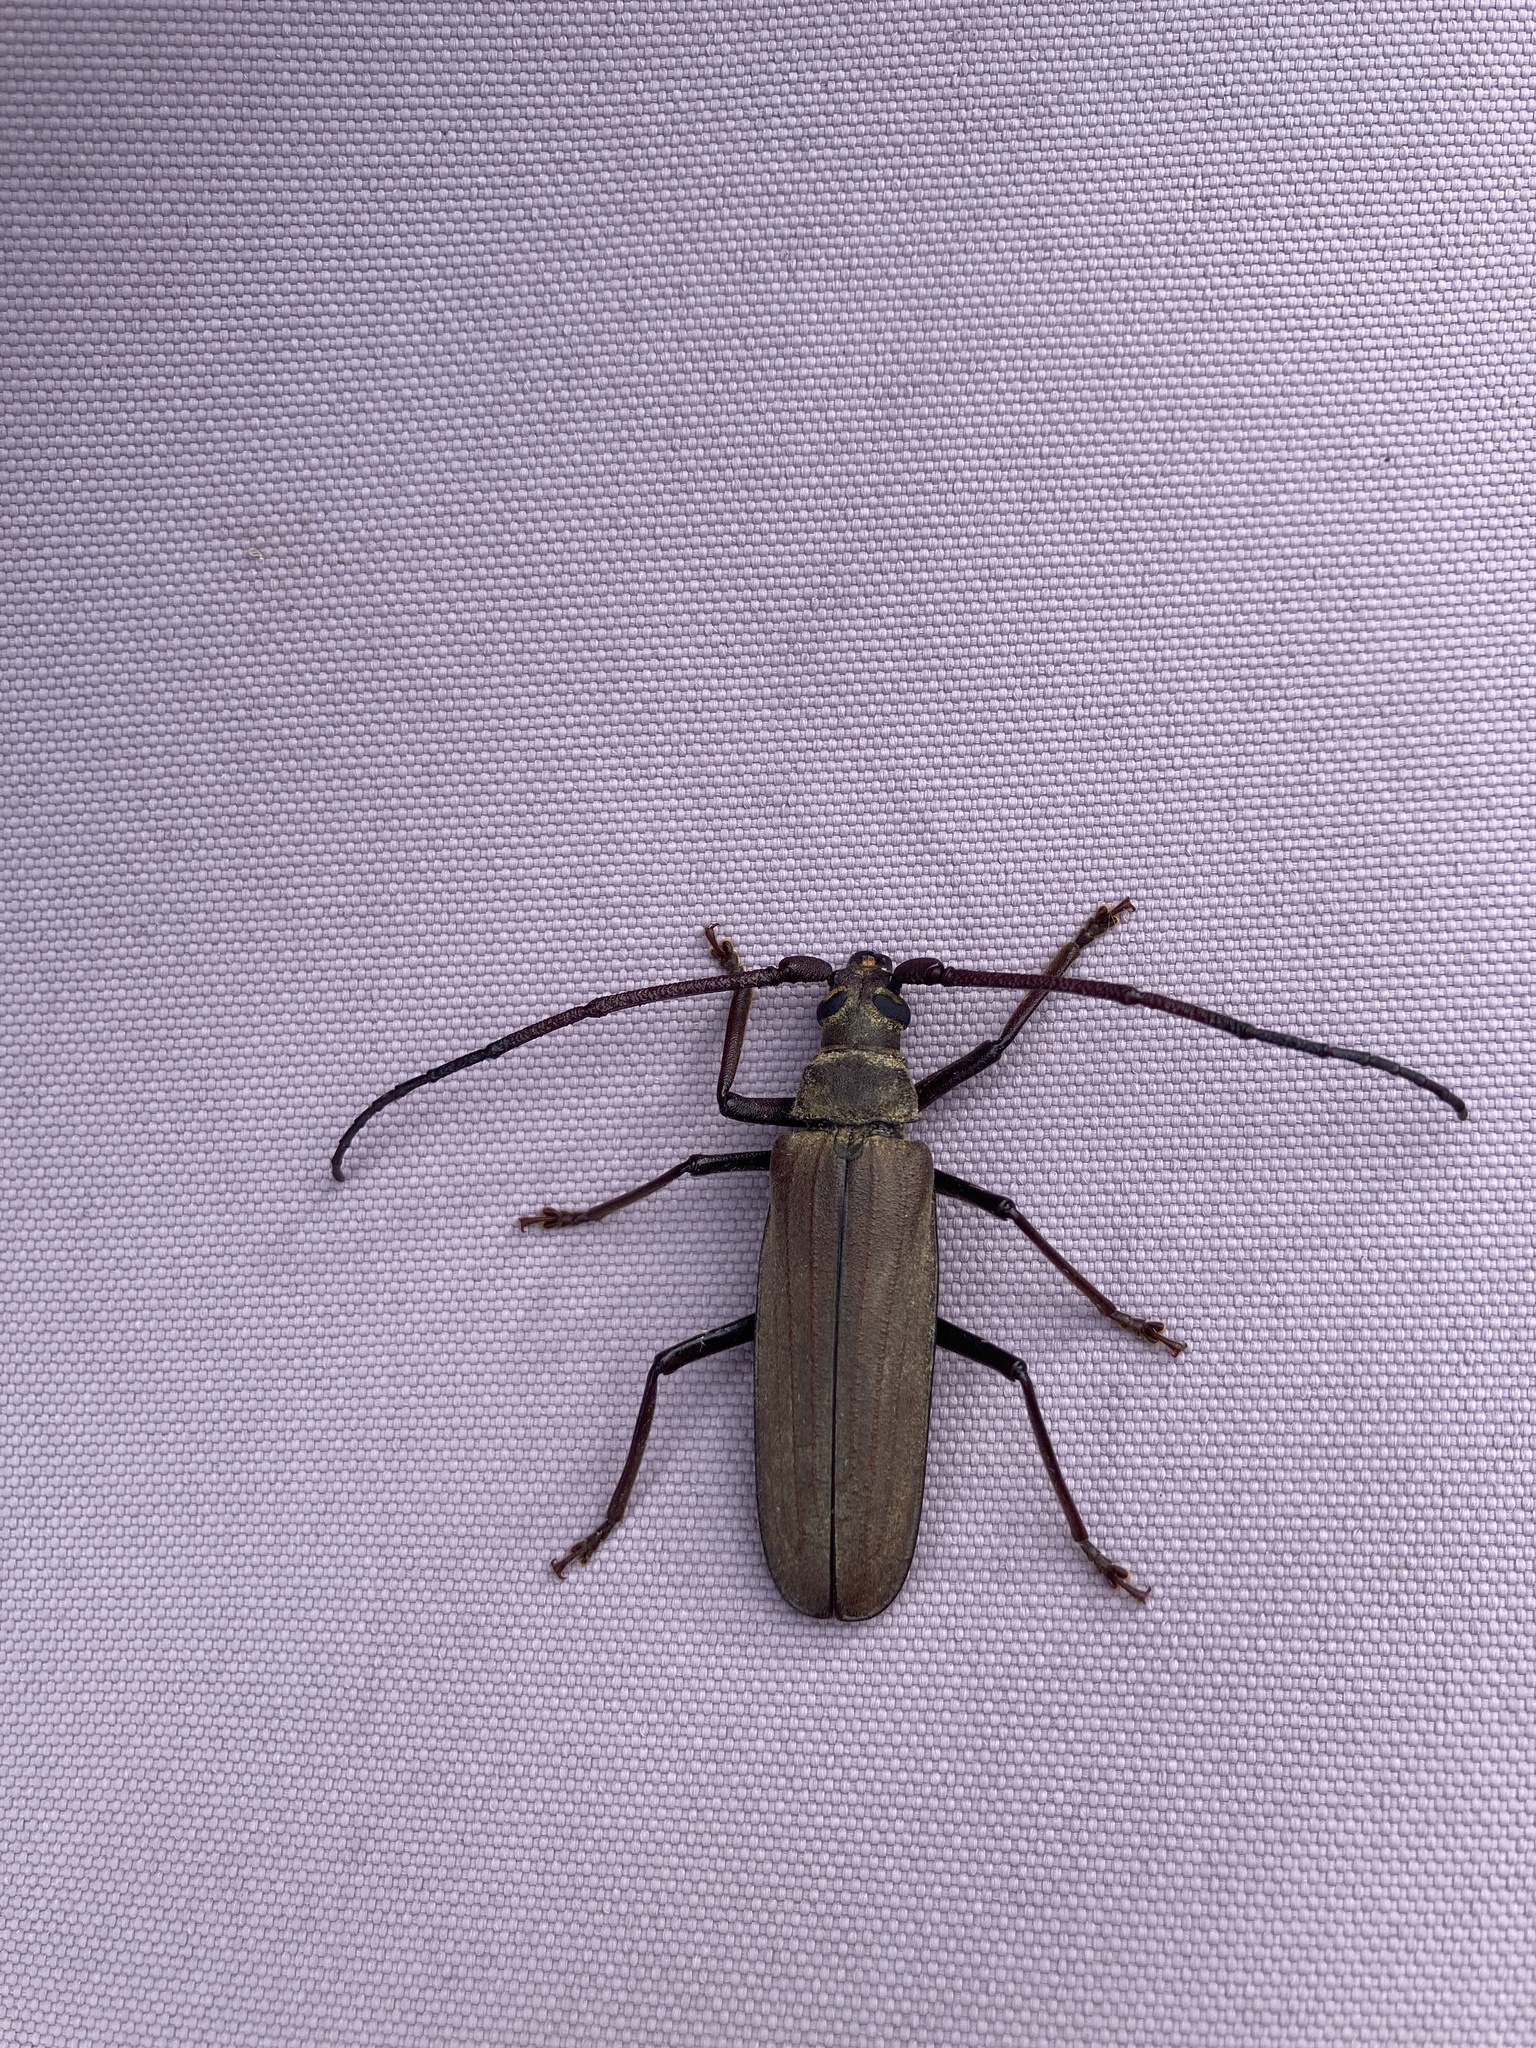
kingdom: Animalia
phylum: Arthropoda
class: Insecta
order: Coleoptera
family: Cerambycidae
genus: Aegosoma
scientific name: Aegosoma scabricorne
